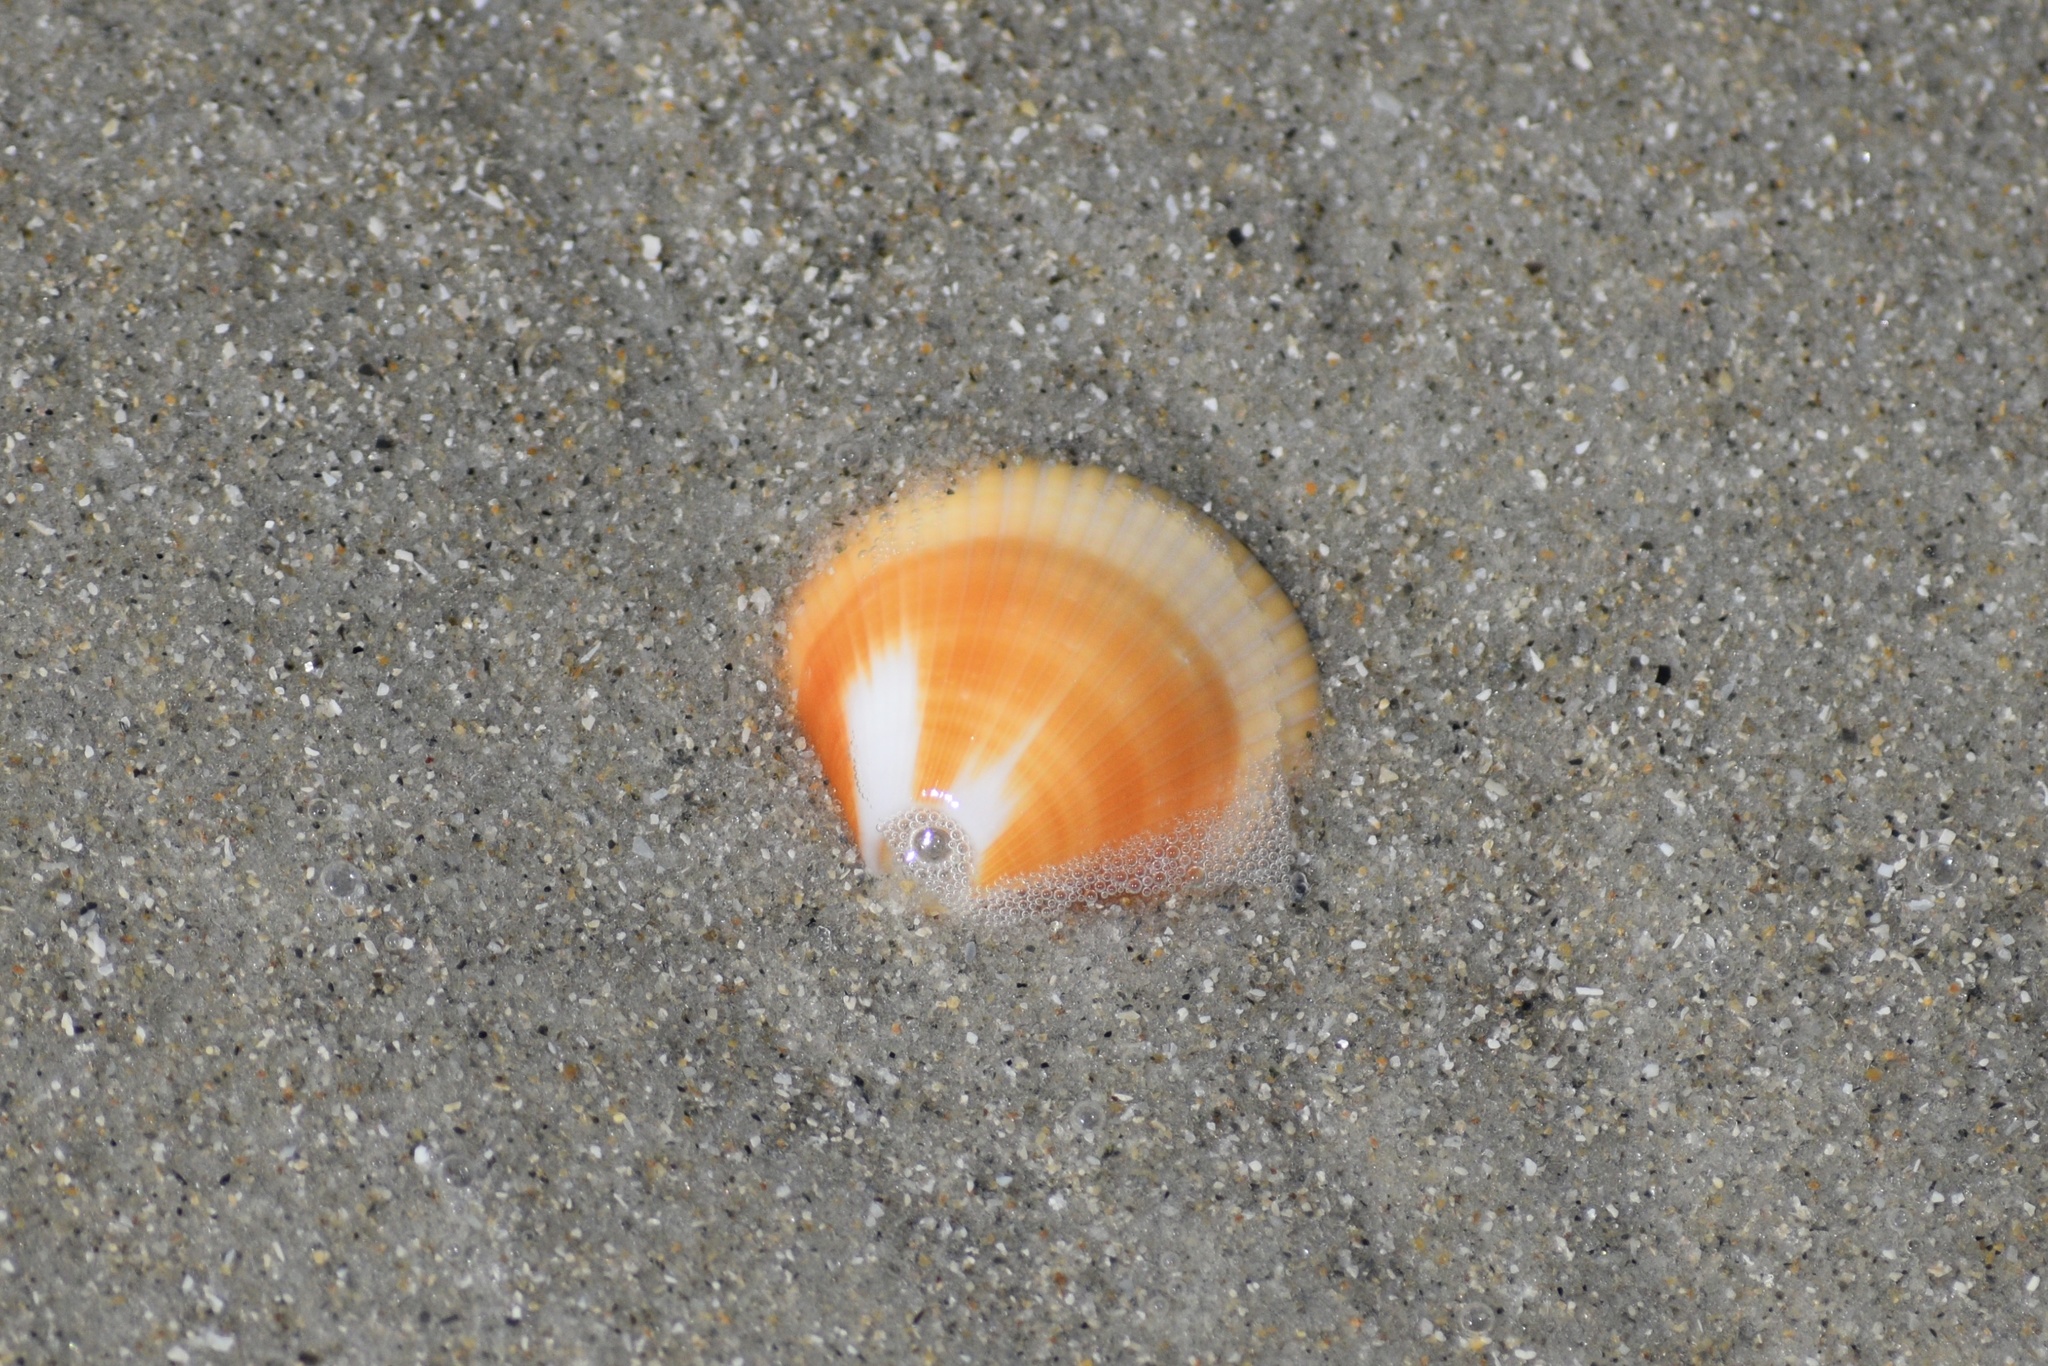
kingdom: Animalia
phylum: Mollusca
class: Bivalvia
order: Arcida
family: Glycymerididae
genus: Glycymeris
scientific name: Glycymeris spectralis
